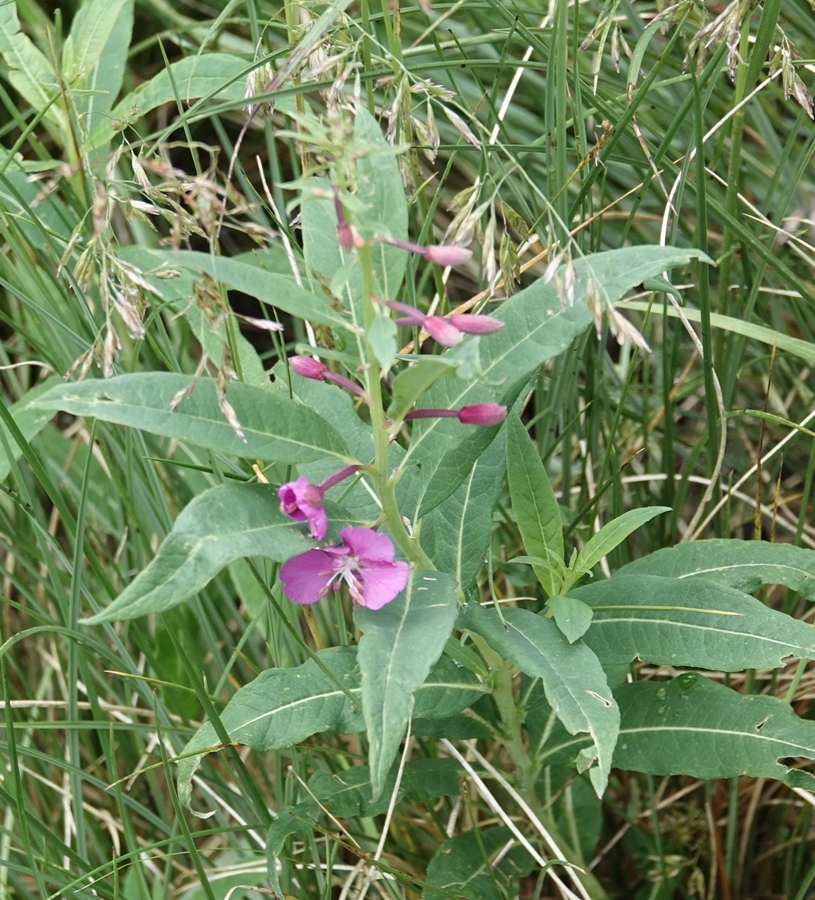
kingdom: Plantae
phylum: Tracheophyta
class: Magnoliopsida
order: Myrtales
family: Onagraceae
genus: Chamaenerion
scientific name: Chamaenerion angustifolium
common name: Fireweed
